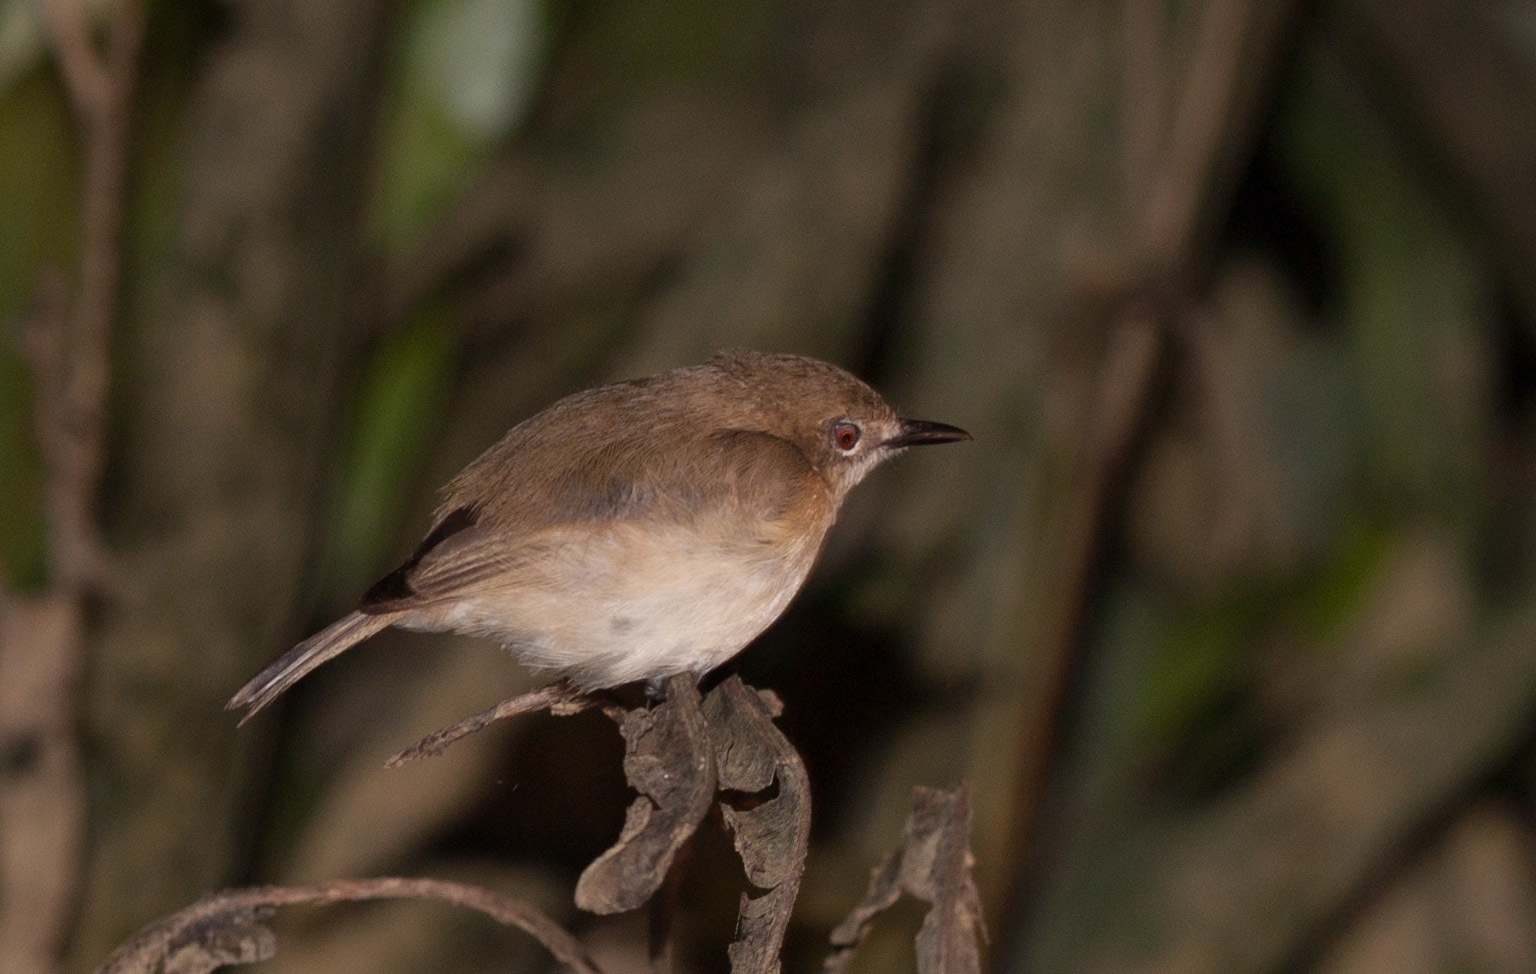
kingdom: Animalia
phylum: Chordata
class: Aves
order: Passeriformes
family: Acanthizidae
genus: Gerygone
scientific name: Gerygone magnirostris
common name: Large-billed gerygone
